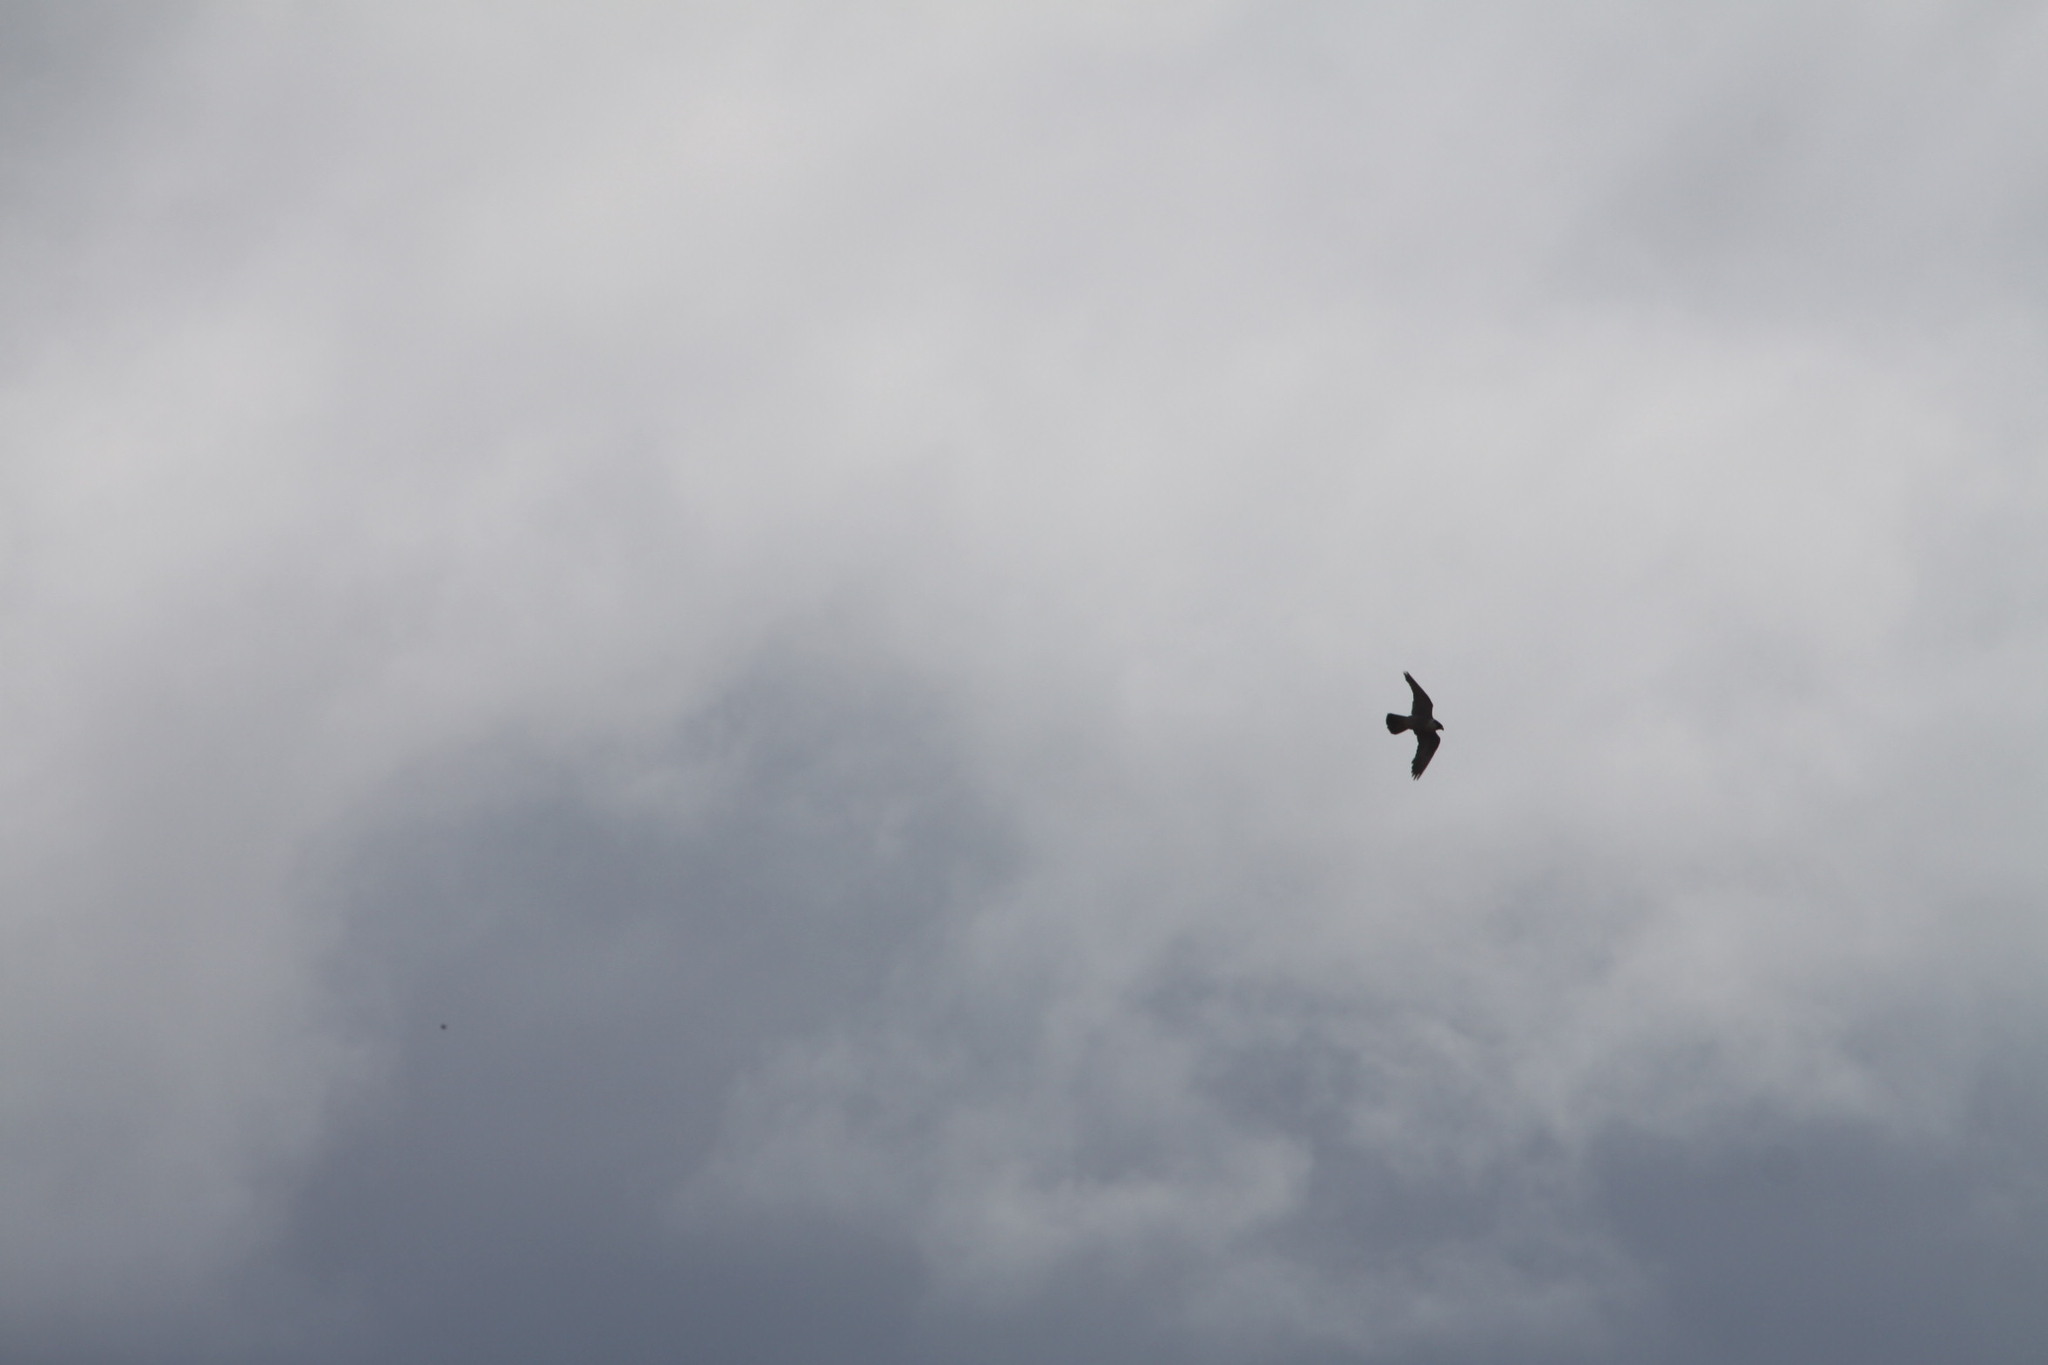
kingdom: Animalia
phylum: Chordata
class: Aves
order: Falconiformes
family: Falconidae
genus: Falco
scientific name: Falco peregrinus
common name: Peregrine falcon
